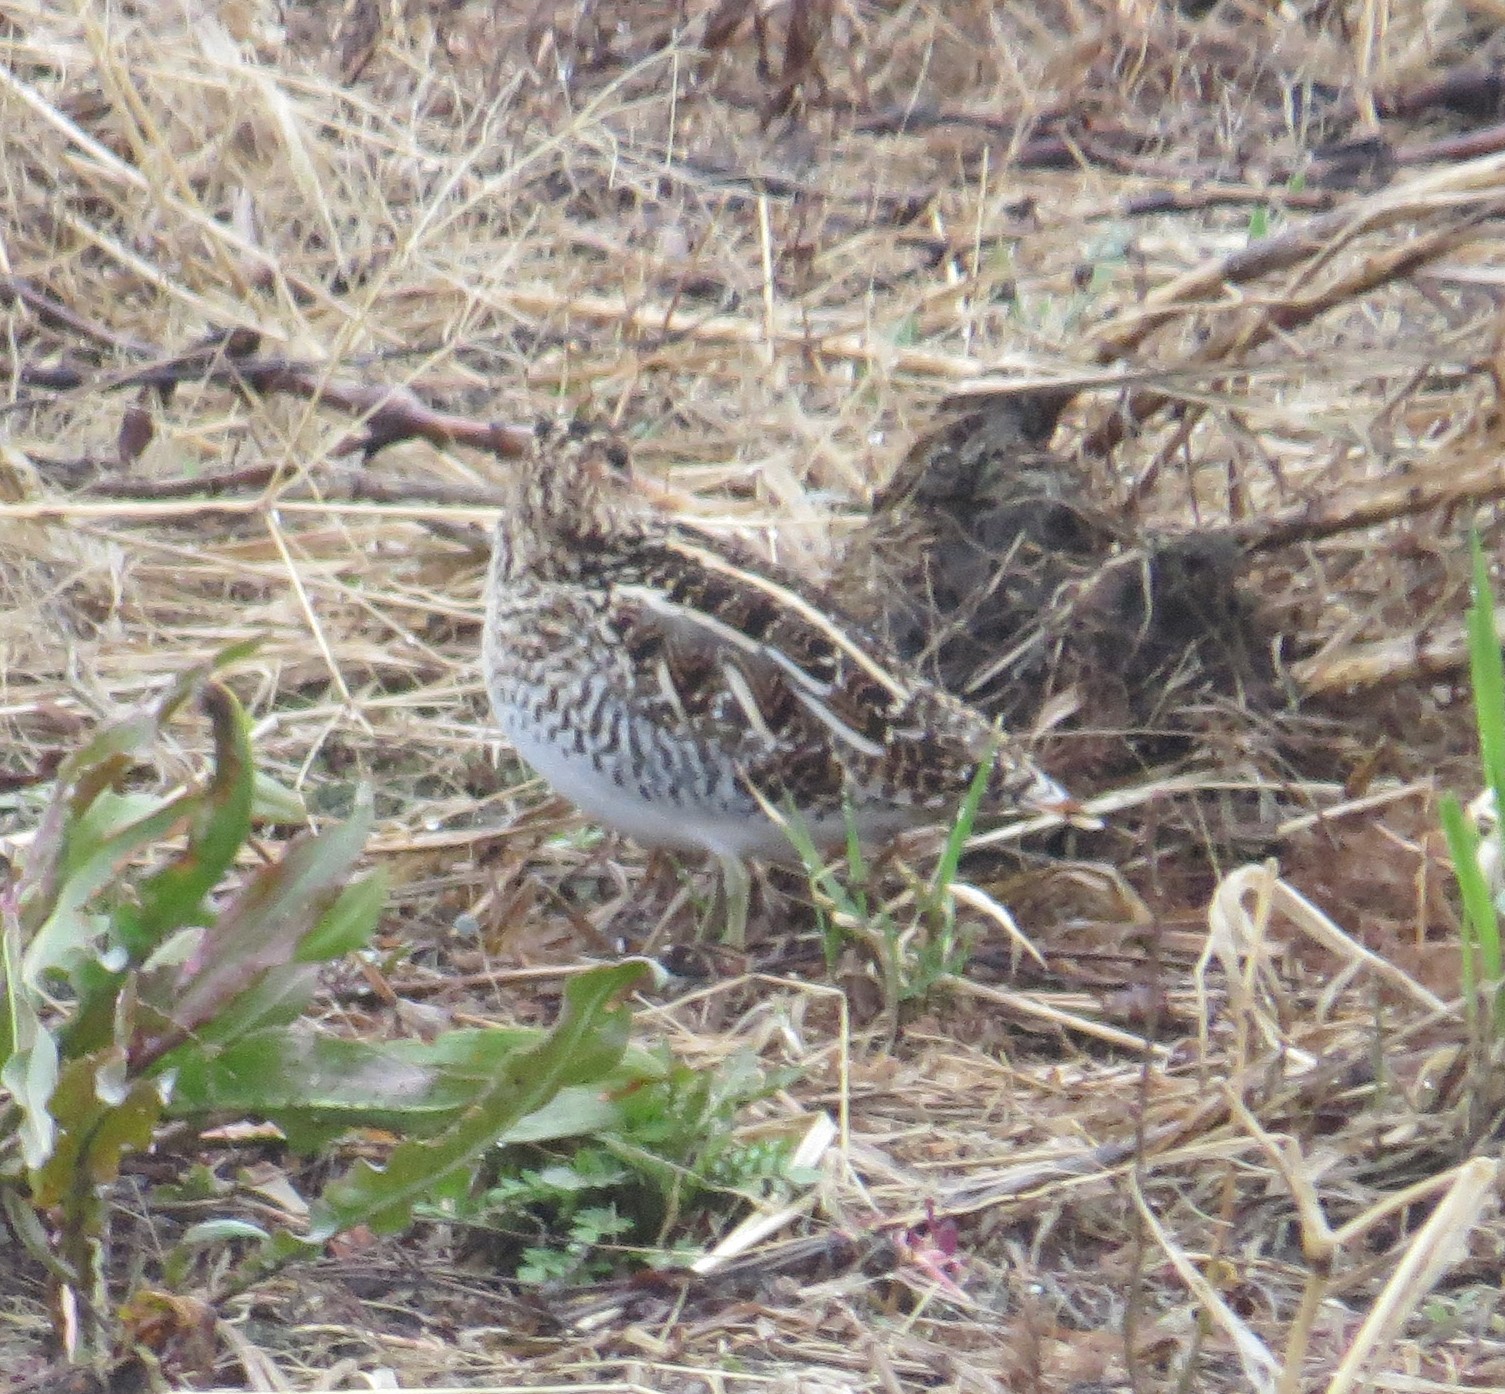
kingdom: Animalia
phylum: Chordata
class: Aves
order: Charadriiformes
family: Scolopacidae
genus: Gallinago
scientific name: Gallinago delicata
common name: Wilson's snipe
